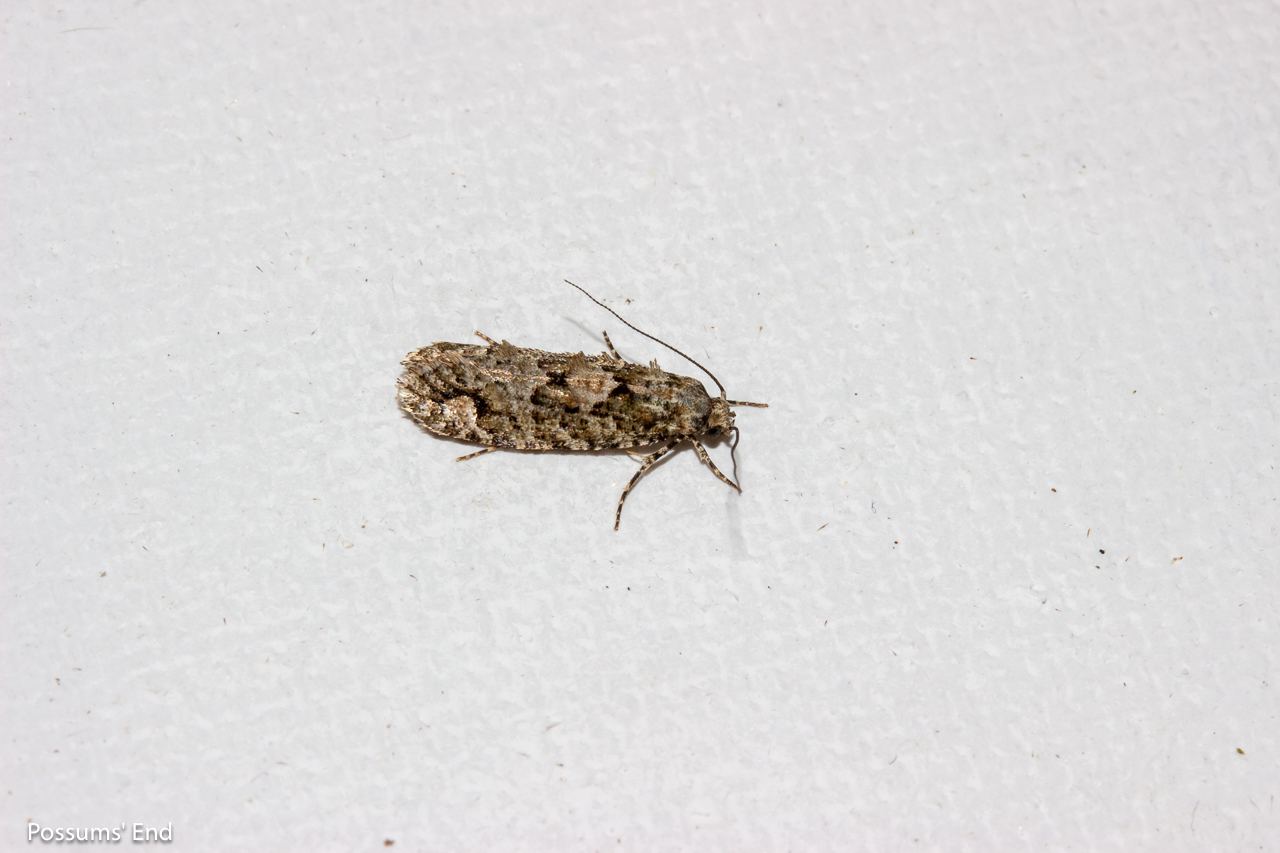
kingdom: Animalia
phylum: Arthropoda
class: Insecta
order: Lepidoptera
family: Tineidae
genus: Lysiphragma
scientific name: Lysiphragma howesii
